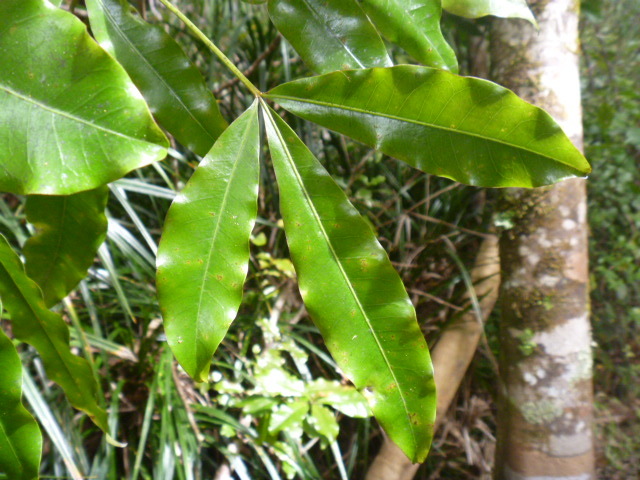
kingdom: Plantae
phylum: Tracheophyta
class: Magnoliopsida
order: Apiales
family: Araliaceae
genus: Raukaua
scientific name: Raukaua edgerleyi
